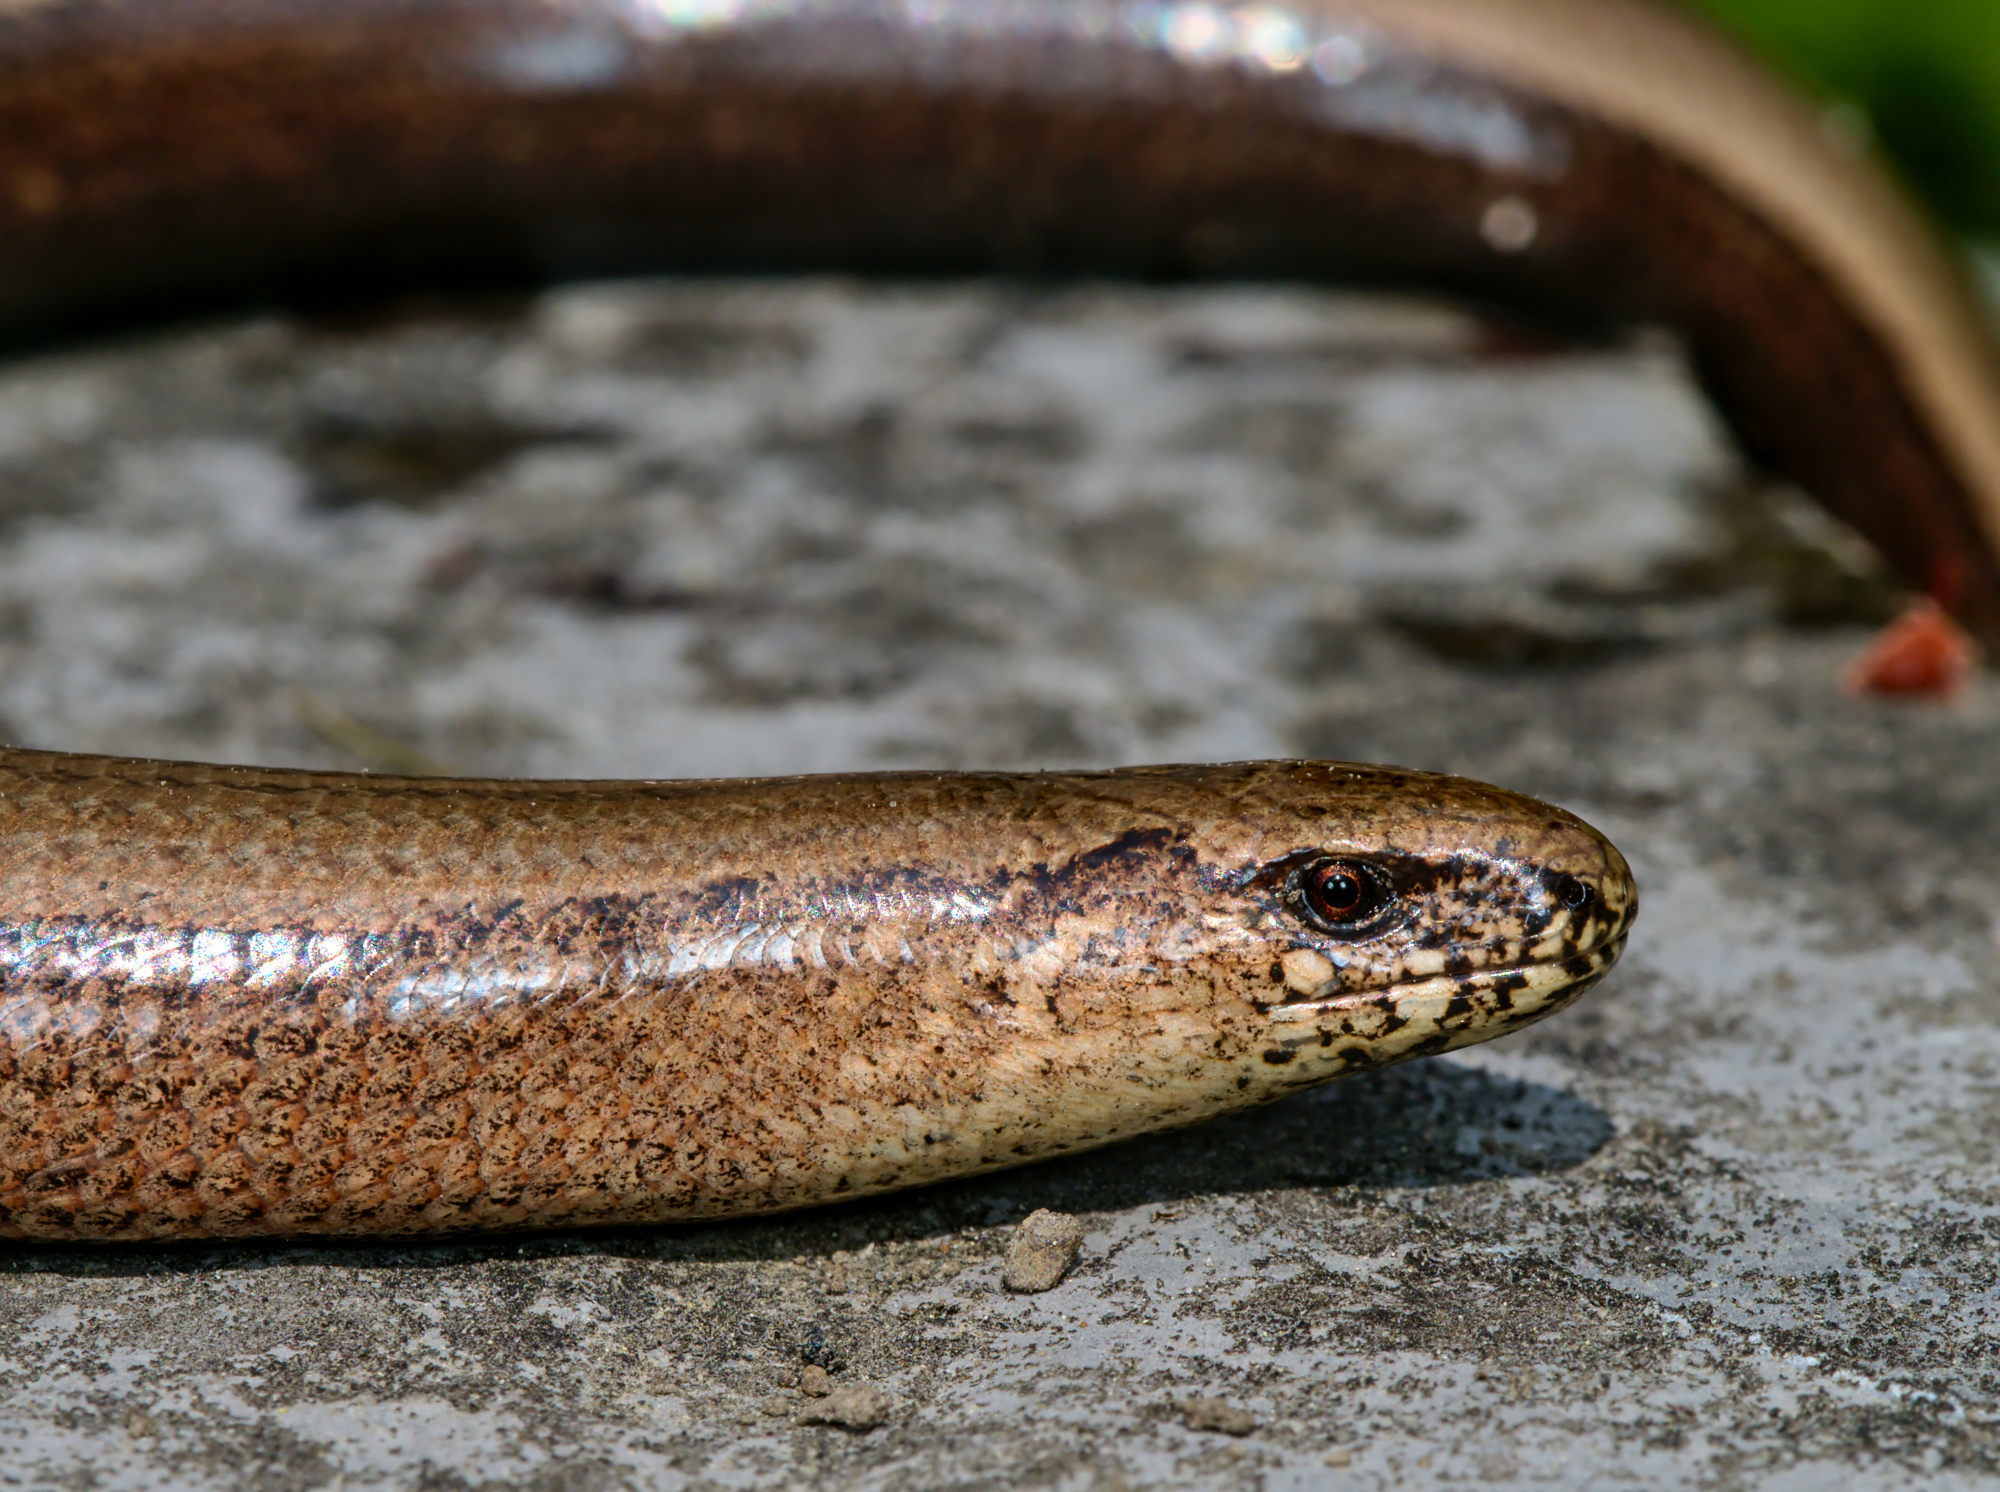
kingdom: Animalia
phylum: Chordata
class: Squamata
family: Anguidae
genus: Anguis
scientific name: Anguis fragilis
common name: Slow worm
